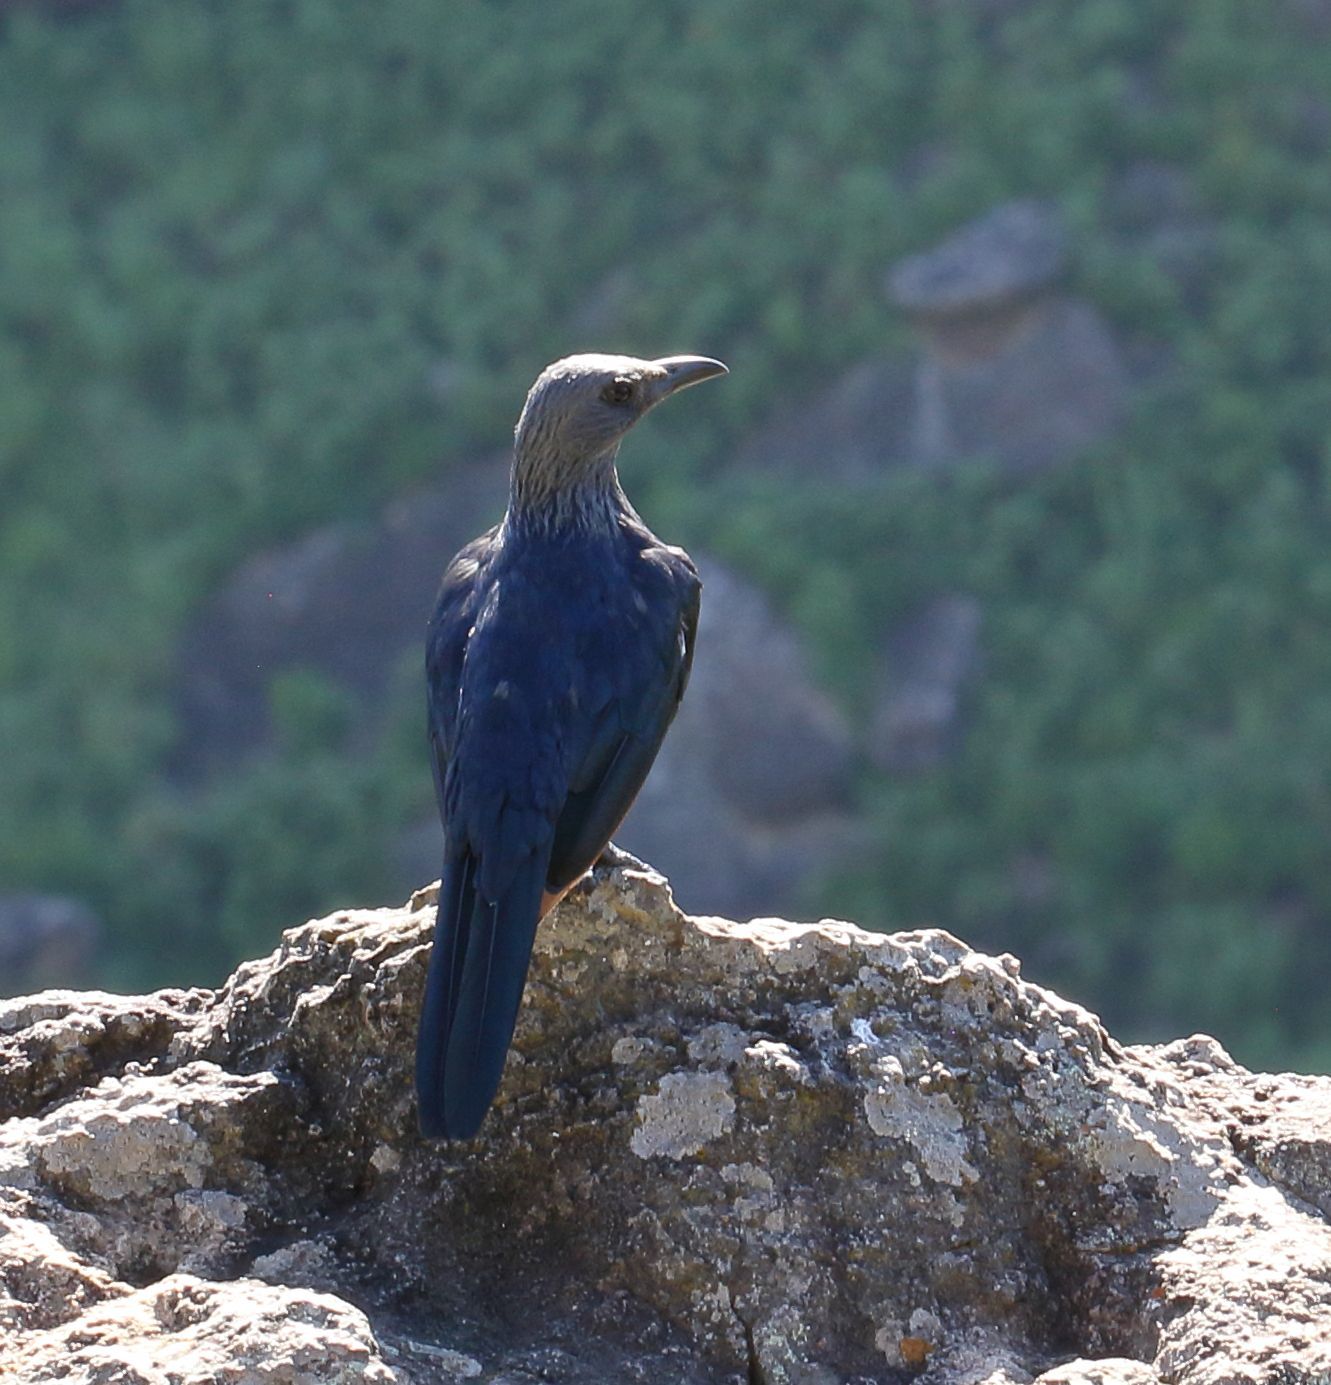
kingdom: Animalia
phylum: Chordata
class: Aves
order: Passeriformes
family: Sturnidae
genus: Onychognathus
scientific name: Onychognathus morio
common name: Red-winged starling
